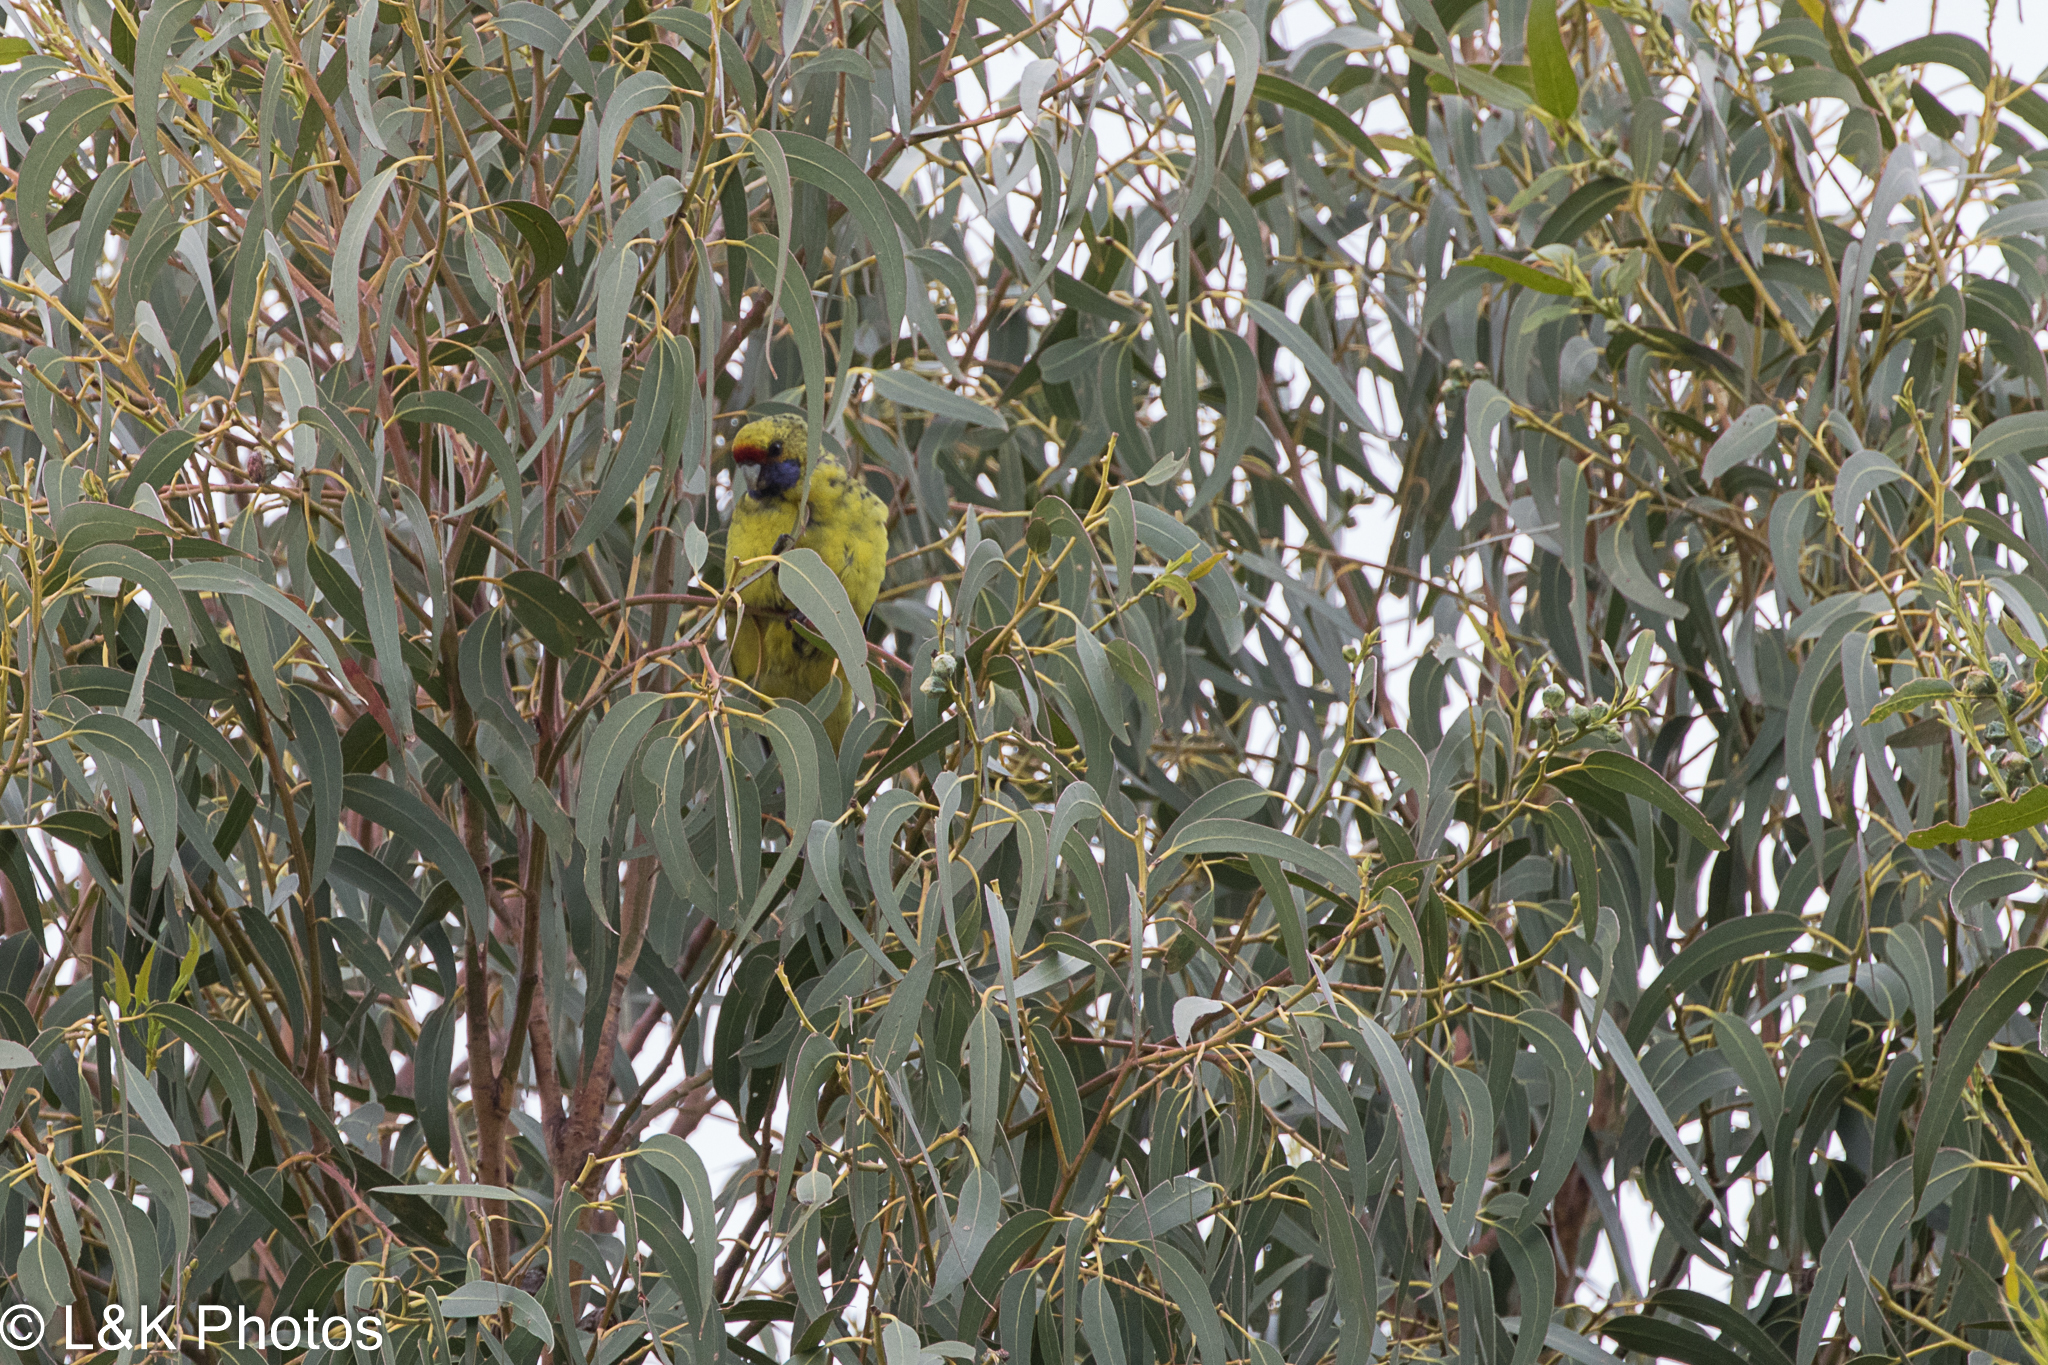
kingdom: Animalia
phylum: Chordata
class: Aves
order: Psittaciformes
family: Psittacidae
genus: Platycercus
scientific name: Platycercus caledonicus
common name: Green rosella
